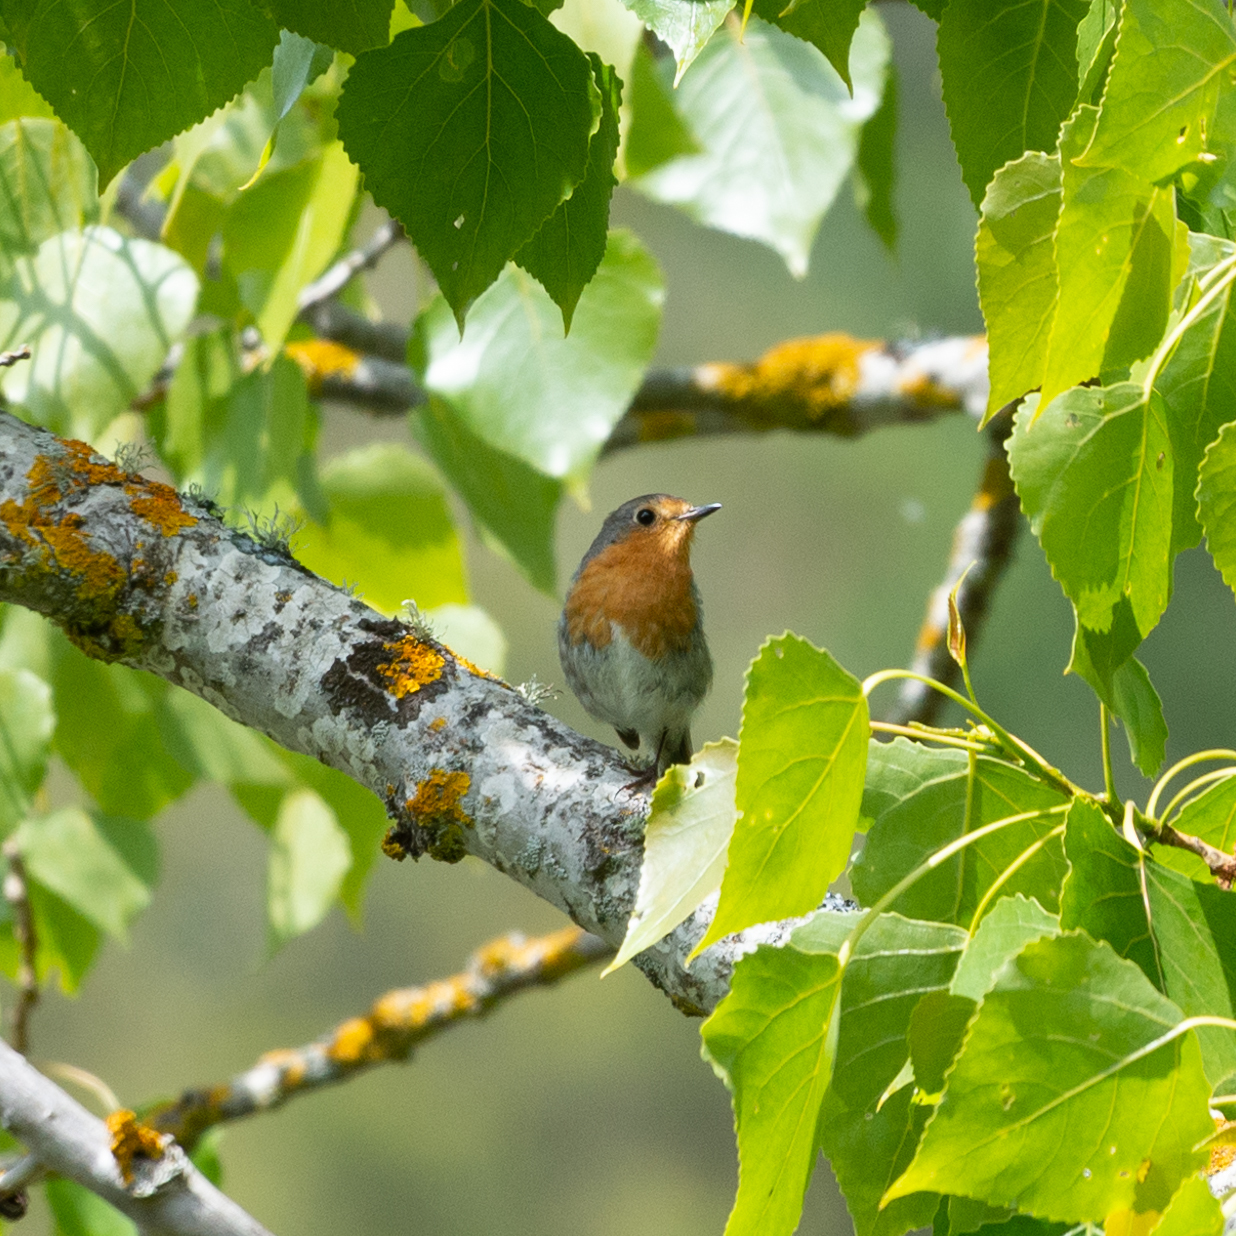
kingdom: Animalia
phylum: Chordata
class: Aves
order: Passeriformes
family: Muscicapidae
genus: Erithacus
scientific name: Erithacus rubecula
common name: European robin
